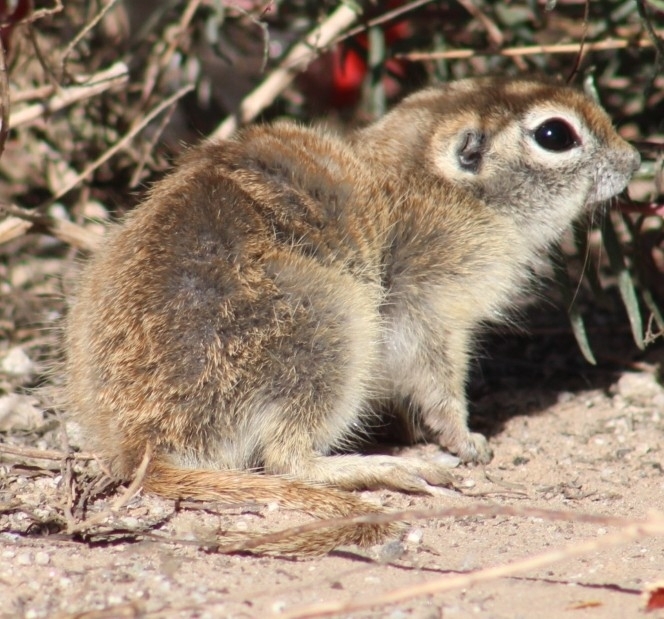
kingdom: Animalia
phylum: Chordata
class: Mammalia
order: Rodentia
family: Sciuridae
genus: Xerospermophilus
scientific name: Xerospermophilus tereticaudus
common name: Round-tailed ground squirrel
